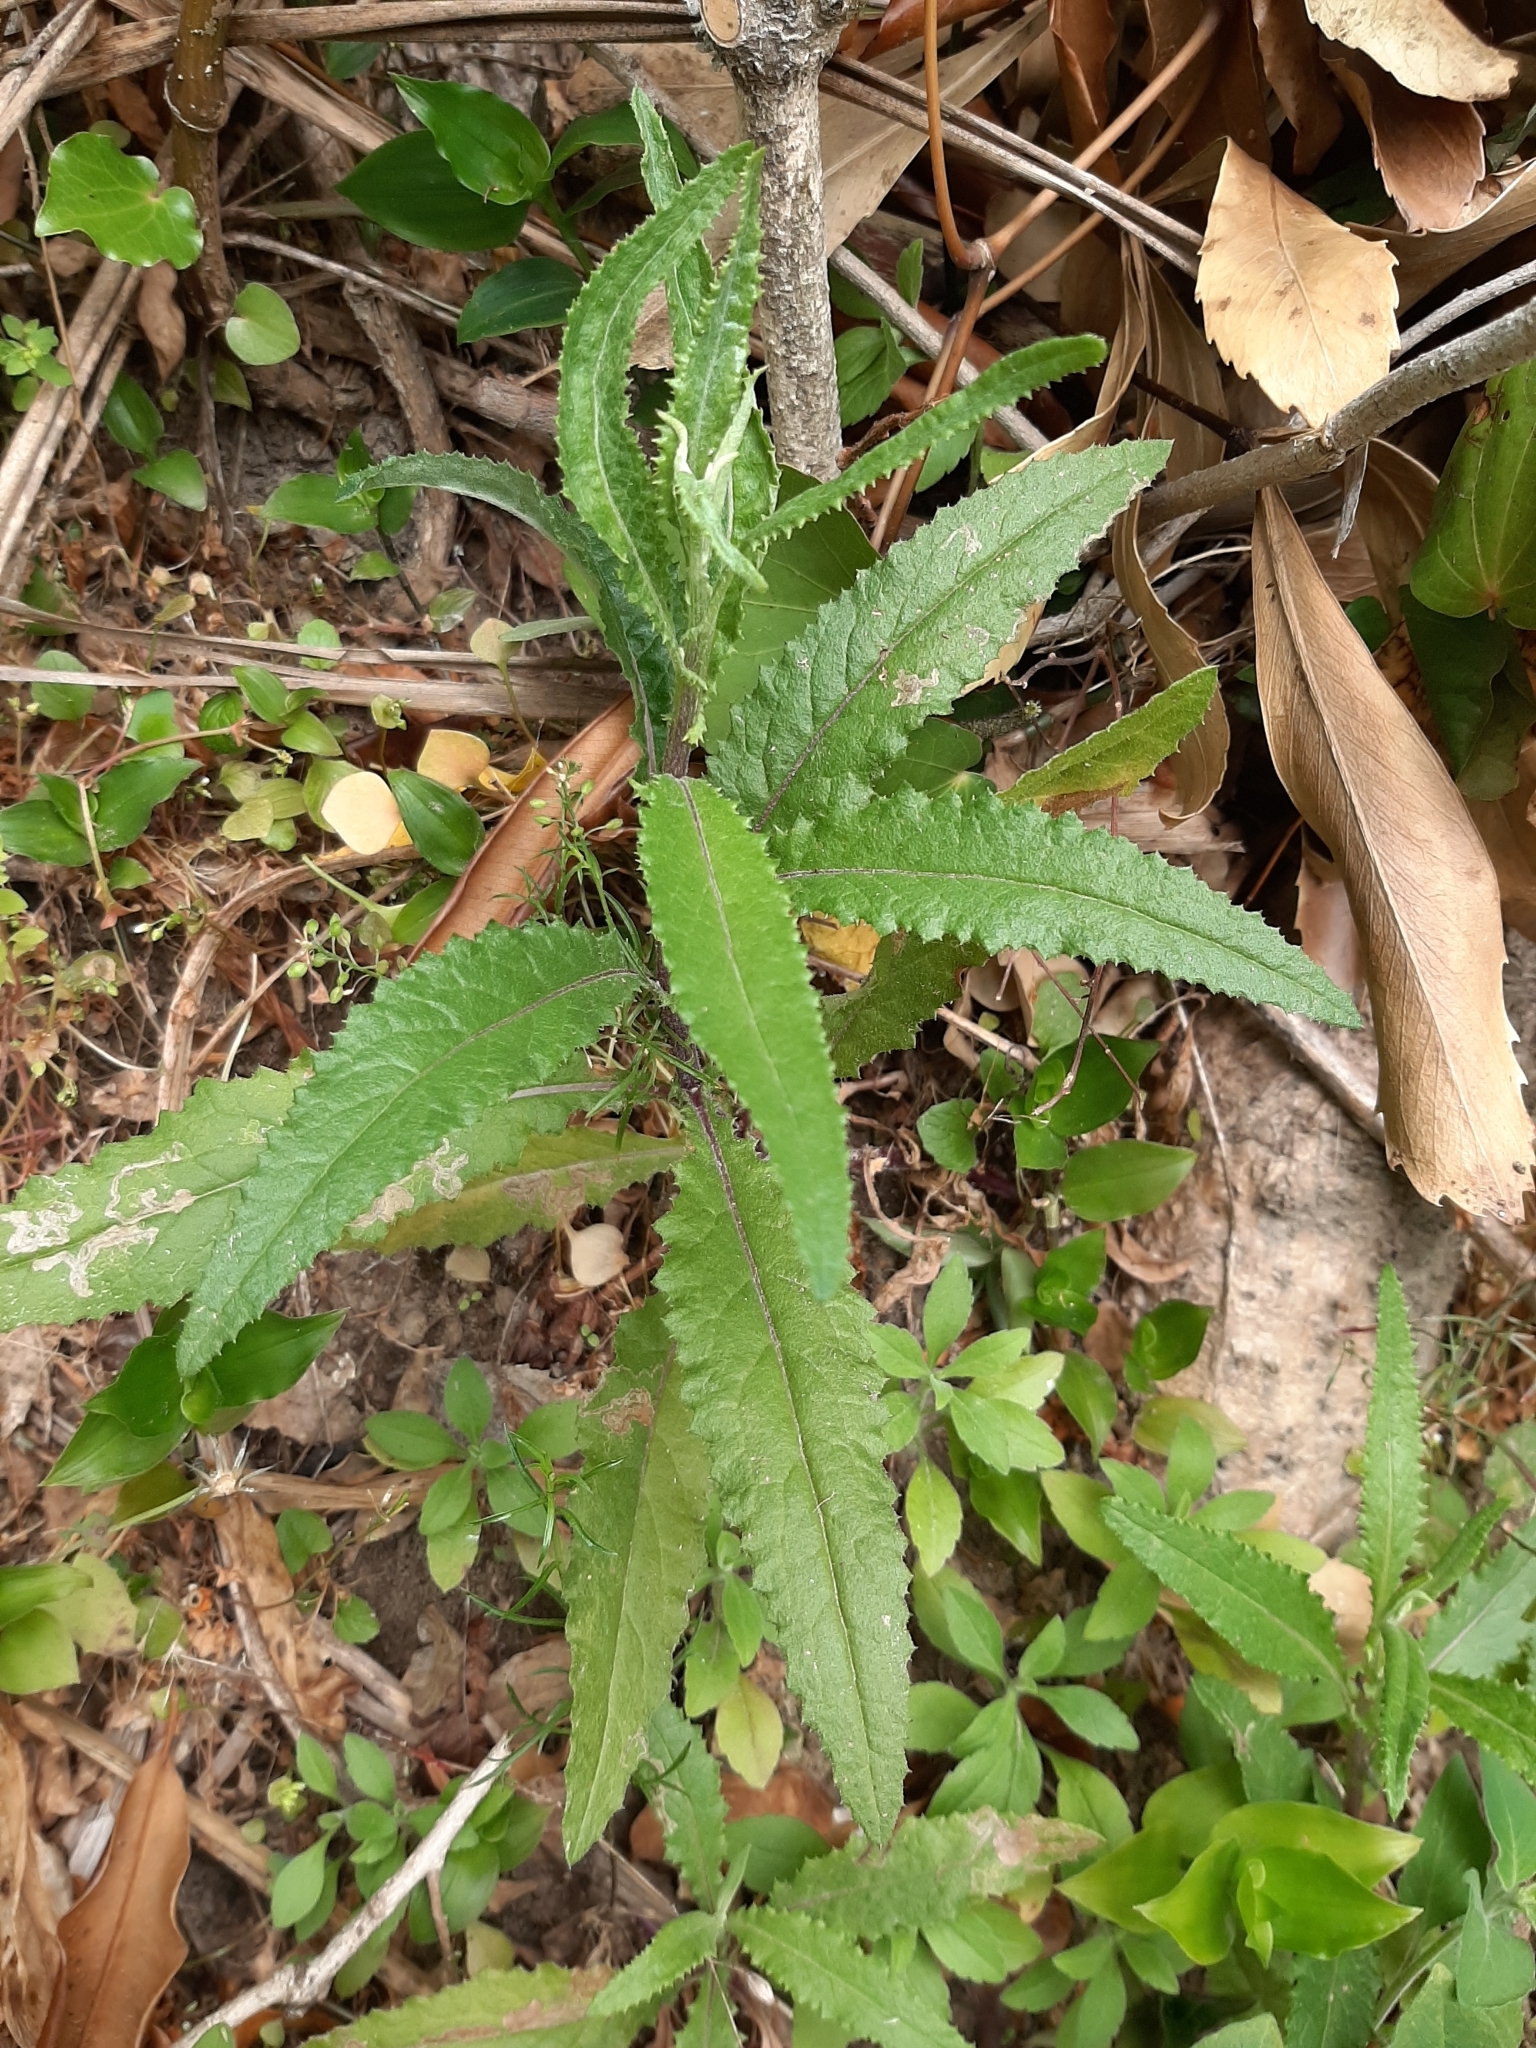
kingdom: Plantae
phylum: Tracheophyta
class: Magnoliopsida
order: Asterales
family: Asteraceae
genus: Senecio
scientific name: Senecio minimus
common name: Toothed fireweed
